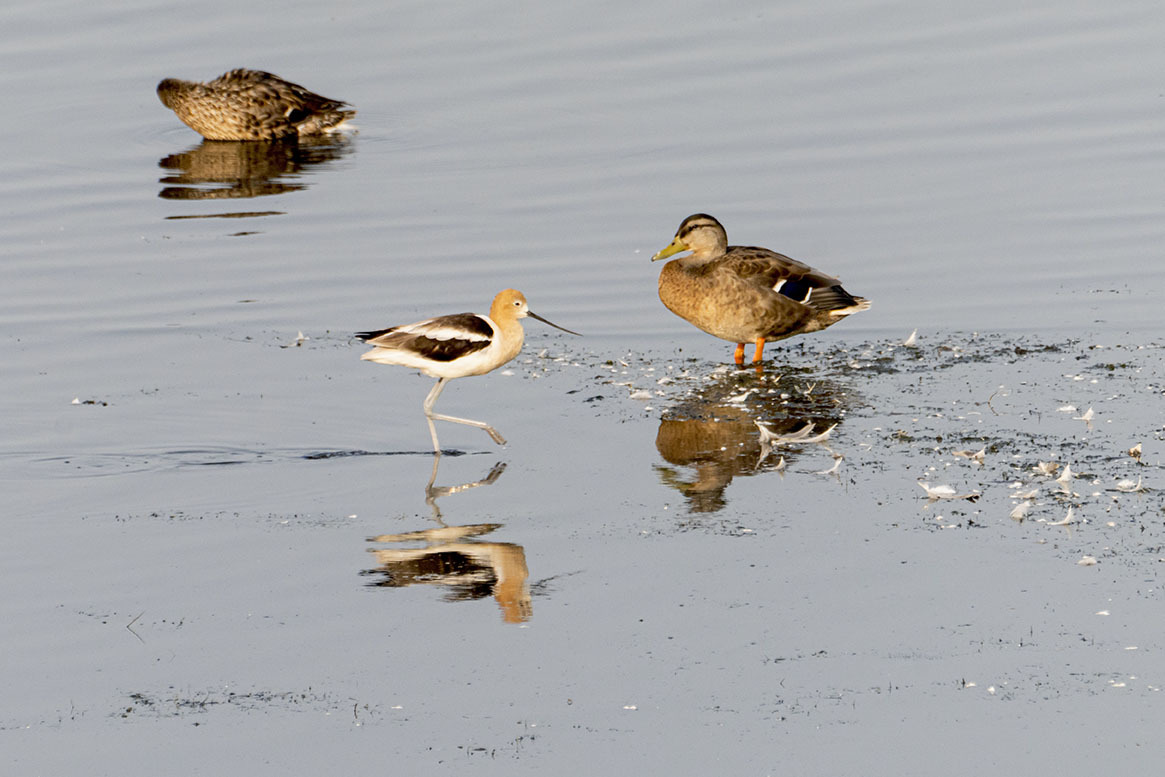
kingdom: Animalia
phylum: Chordata
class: Aves
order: Charadriiformes
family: Recurvirostridae
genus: Recurvirostra
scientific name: Recurvirostra americana
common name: American avocet
